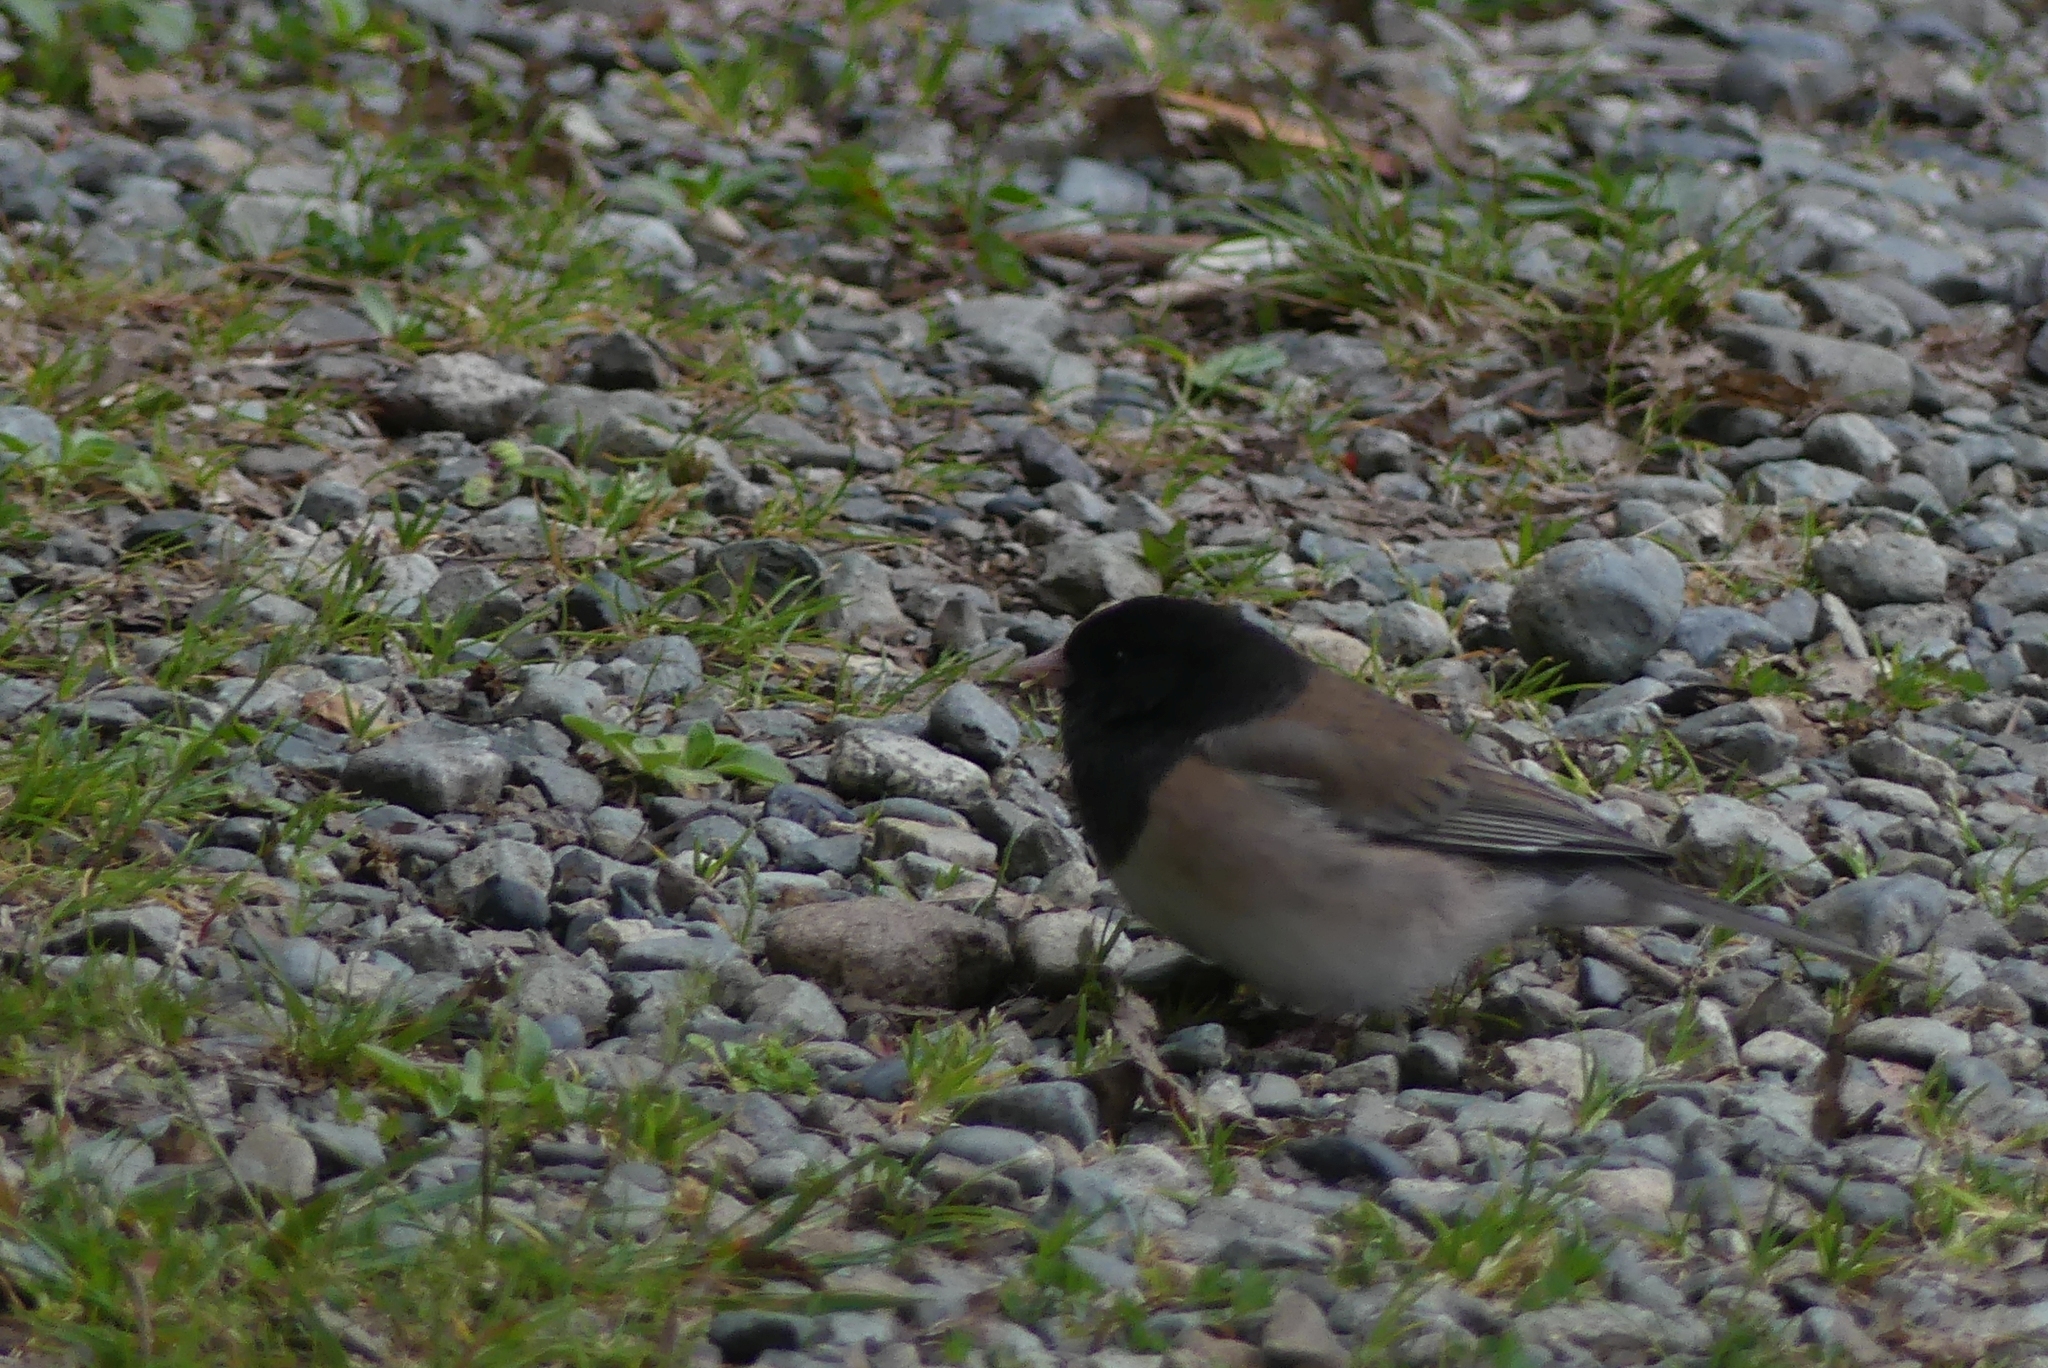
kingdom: Animalia
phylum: Chordata
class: Aves
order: Passeriformes
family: Passerellidae
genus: Junco
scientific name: Junco hyemalis
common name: Dark-eyed junco
